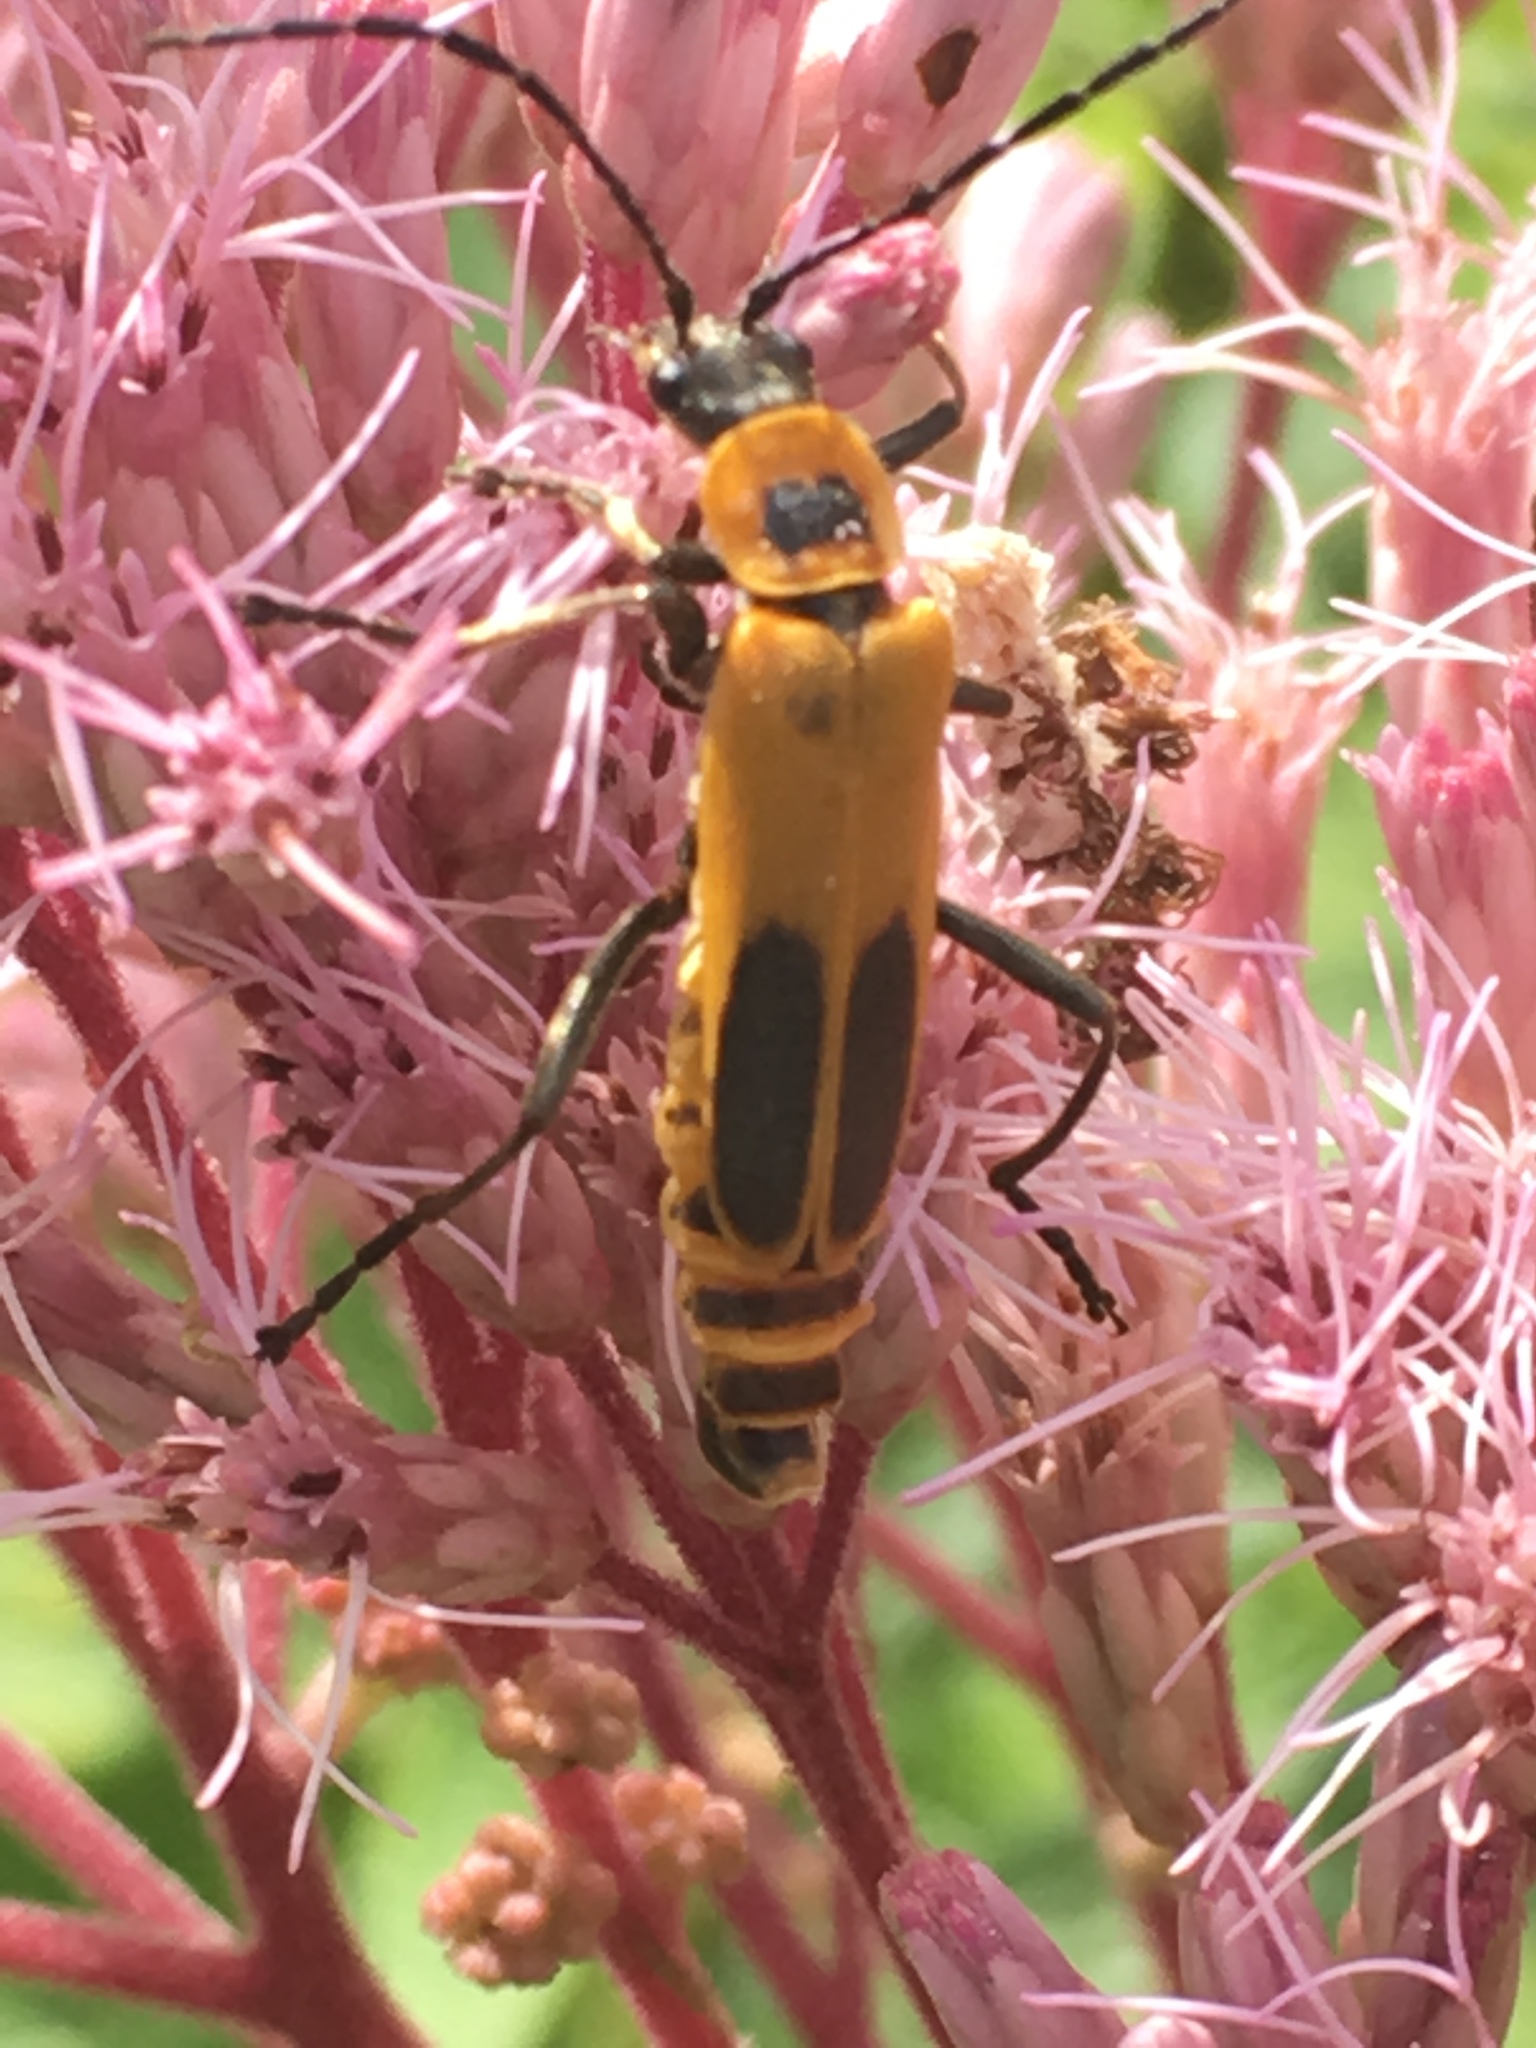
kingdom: Animalia
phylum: Arthropoda
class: Insecta
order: Coleoptera
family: Cantharidae
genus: Chauliognathus
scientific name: Chauliognathus pensylvanicus
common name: Goldenrod soldier beetle
